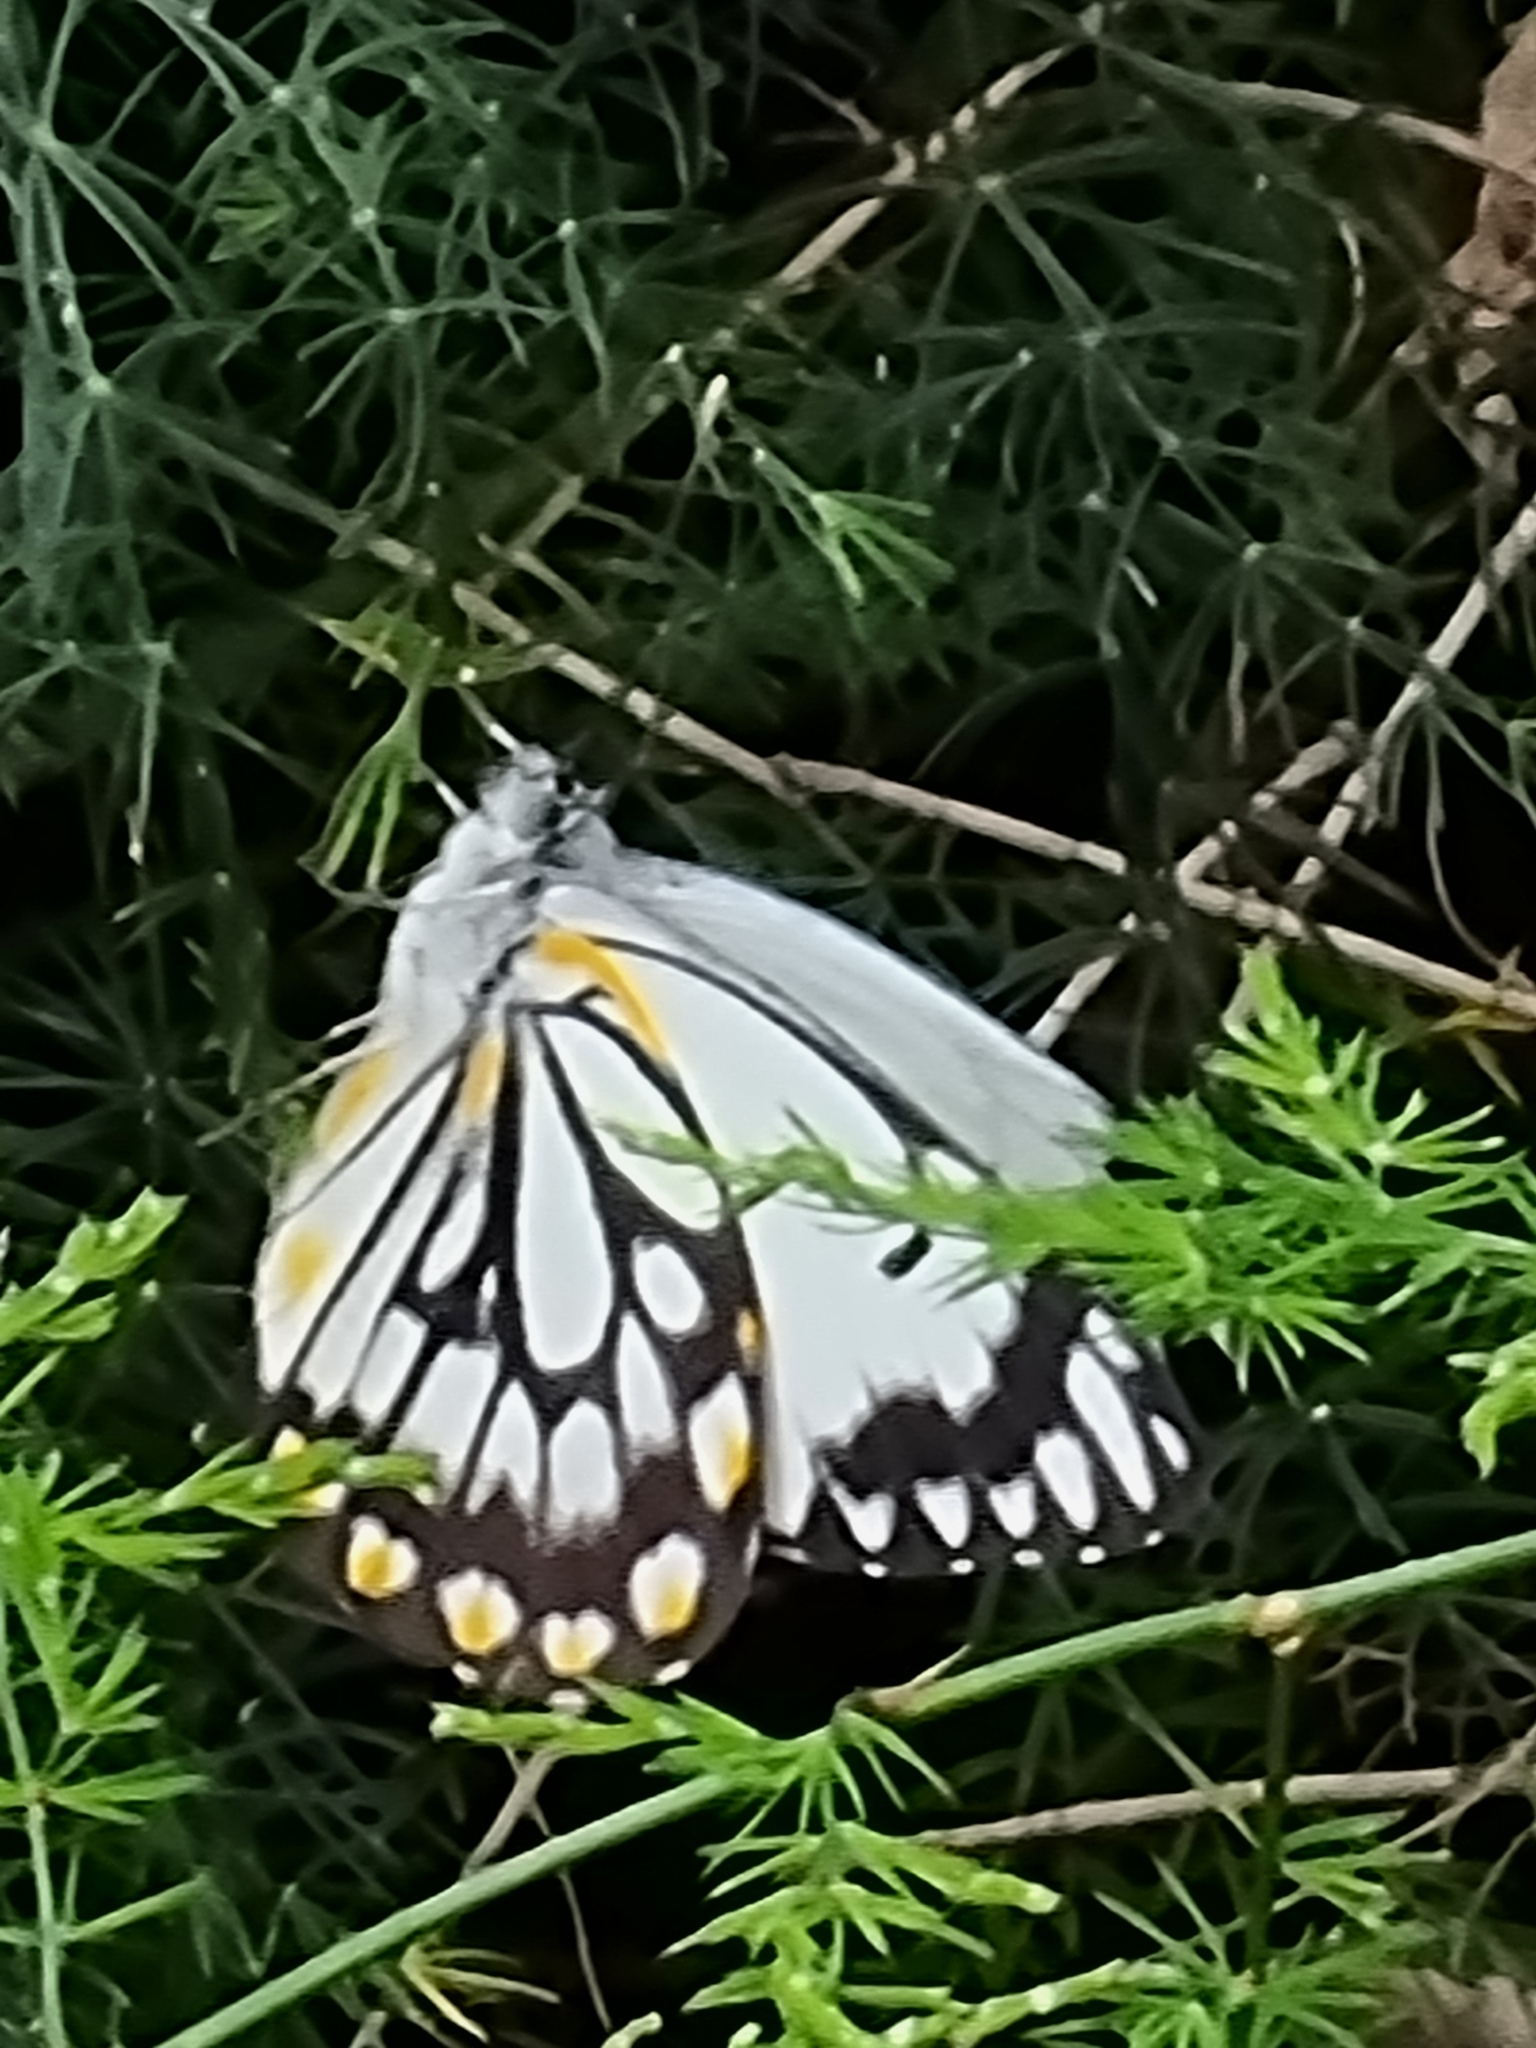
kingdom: Animalia
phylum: Arthropoda
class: Insecta
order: Lepidoptera
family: Pieridae
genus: Belenois
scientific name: Belenois java
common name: Caper white
